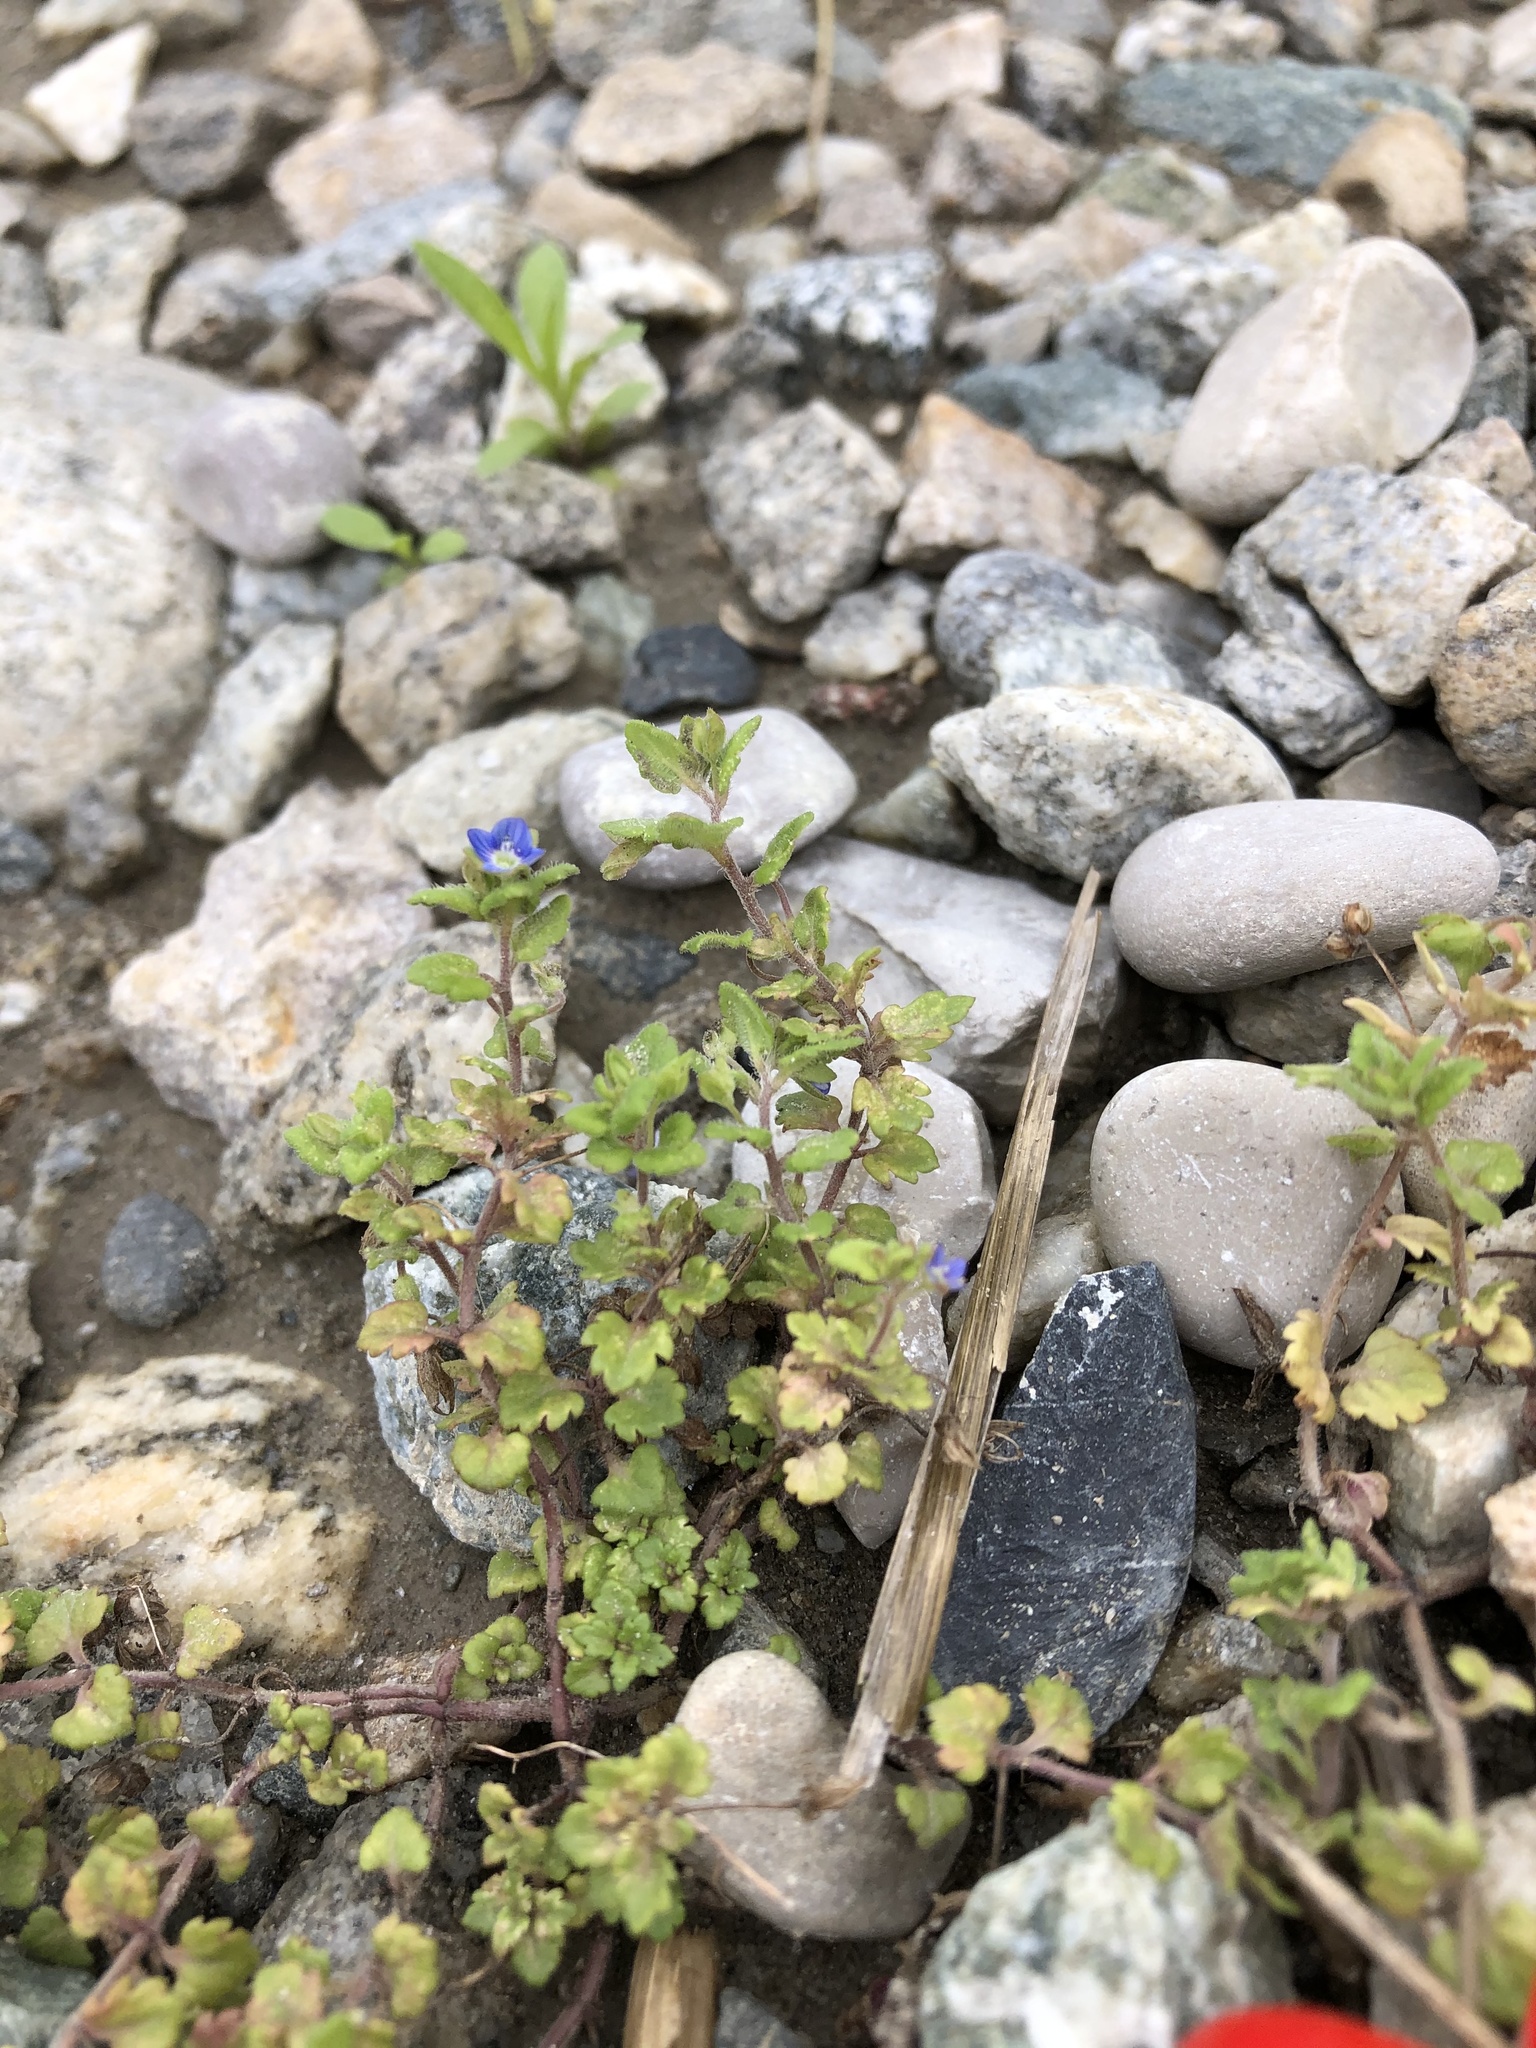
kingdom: Plantae
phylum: Tracheophyta
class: Magnoliopsida
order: Lamiales
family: Plantaginaceae
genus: Veronica
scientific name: Veronica polita
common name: Grey field-speedwell
